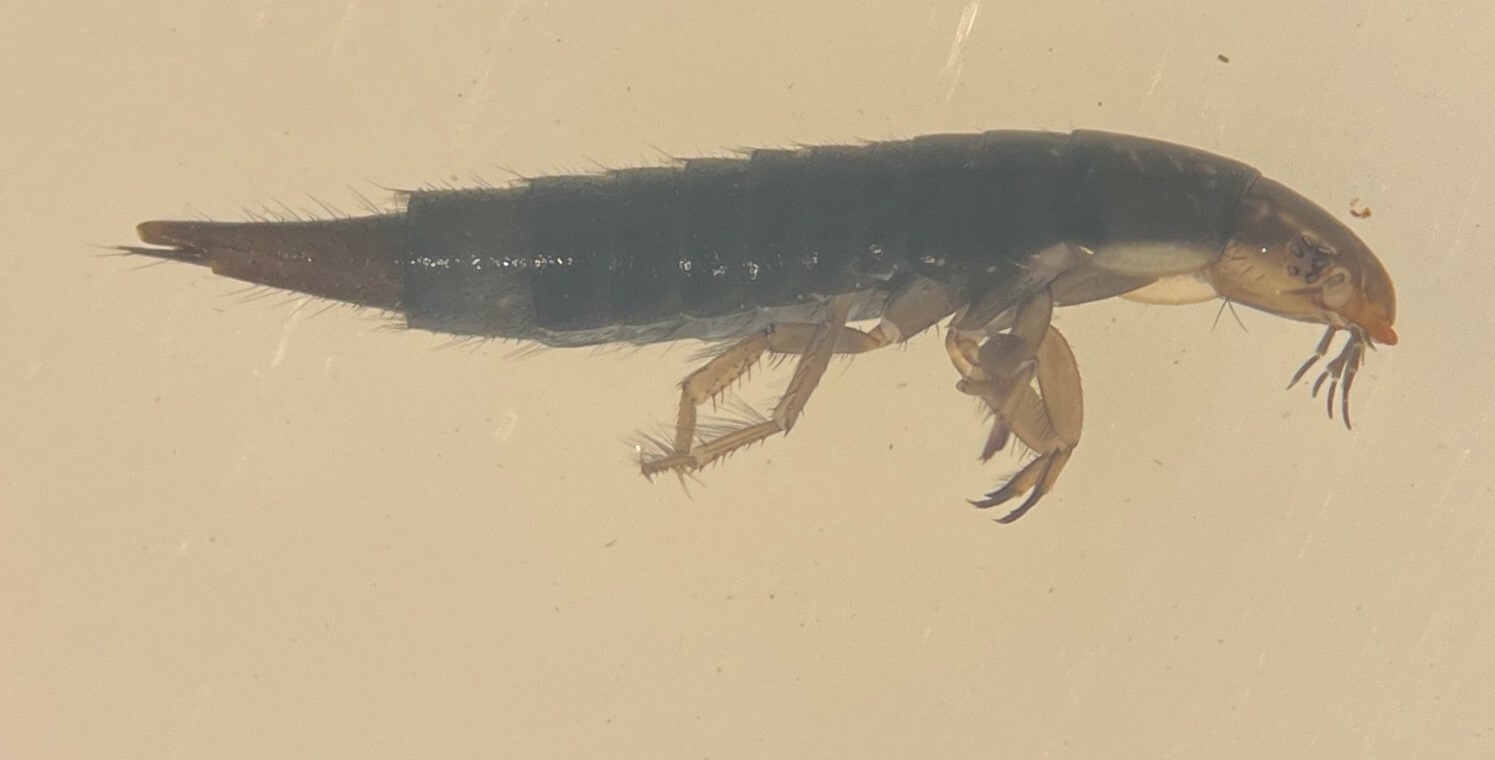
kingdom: Animalia
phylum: Arthropoda
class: Insecta
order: Coleoptera
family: Dytiscidae
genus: Matus
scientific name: Matus
